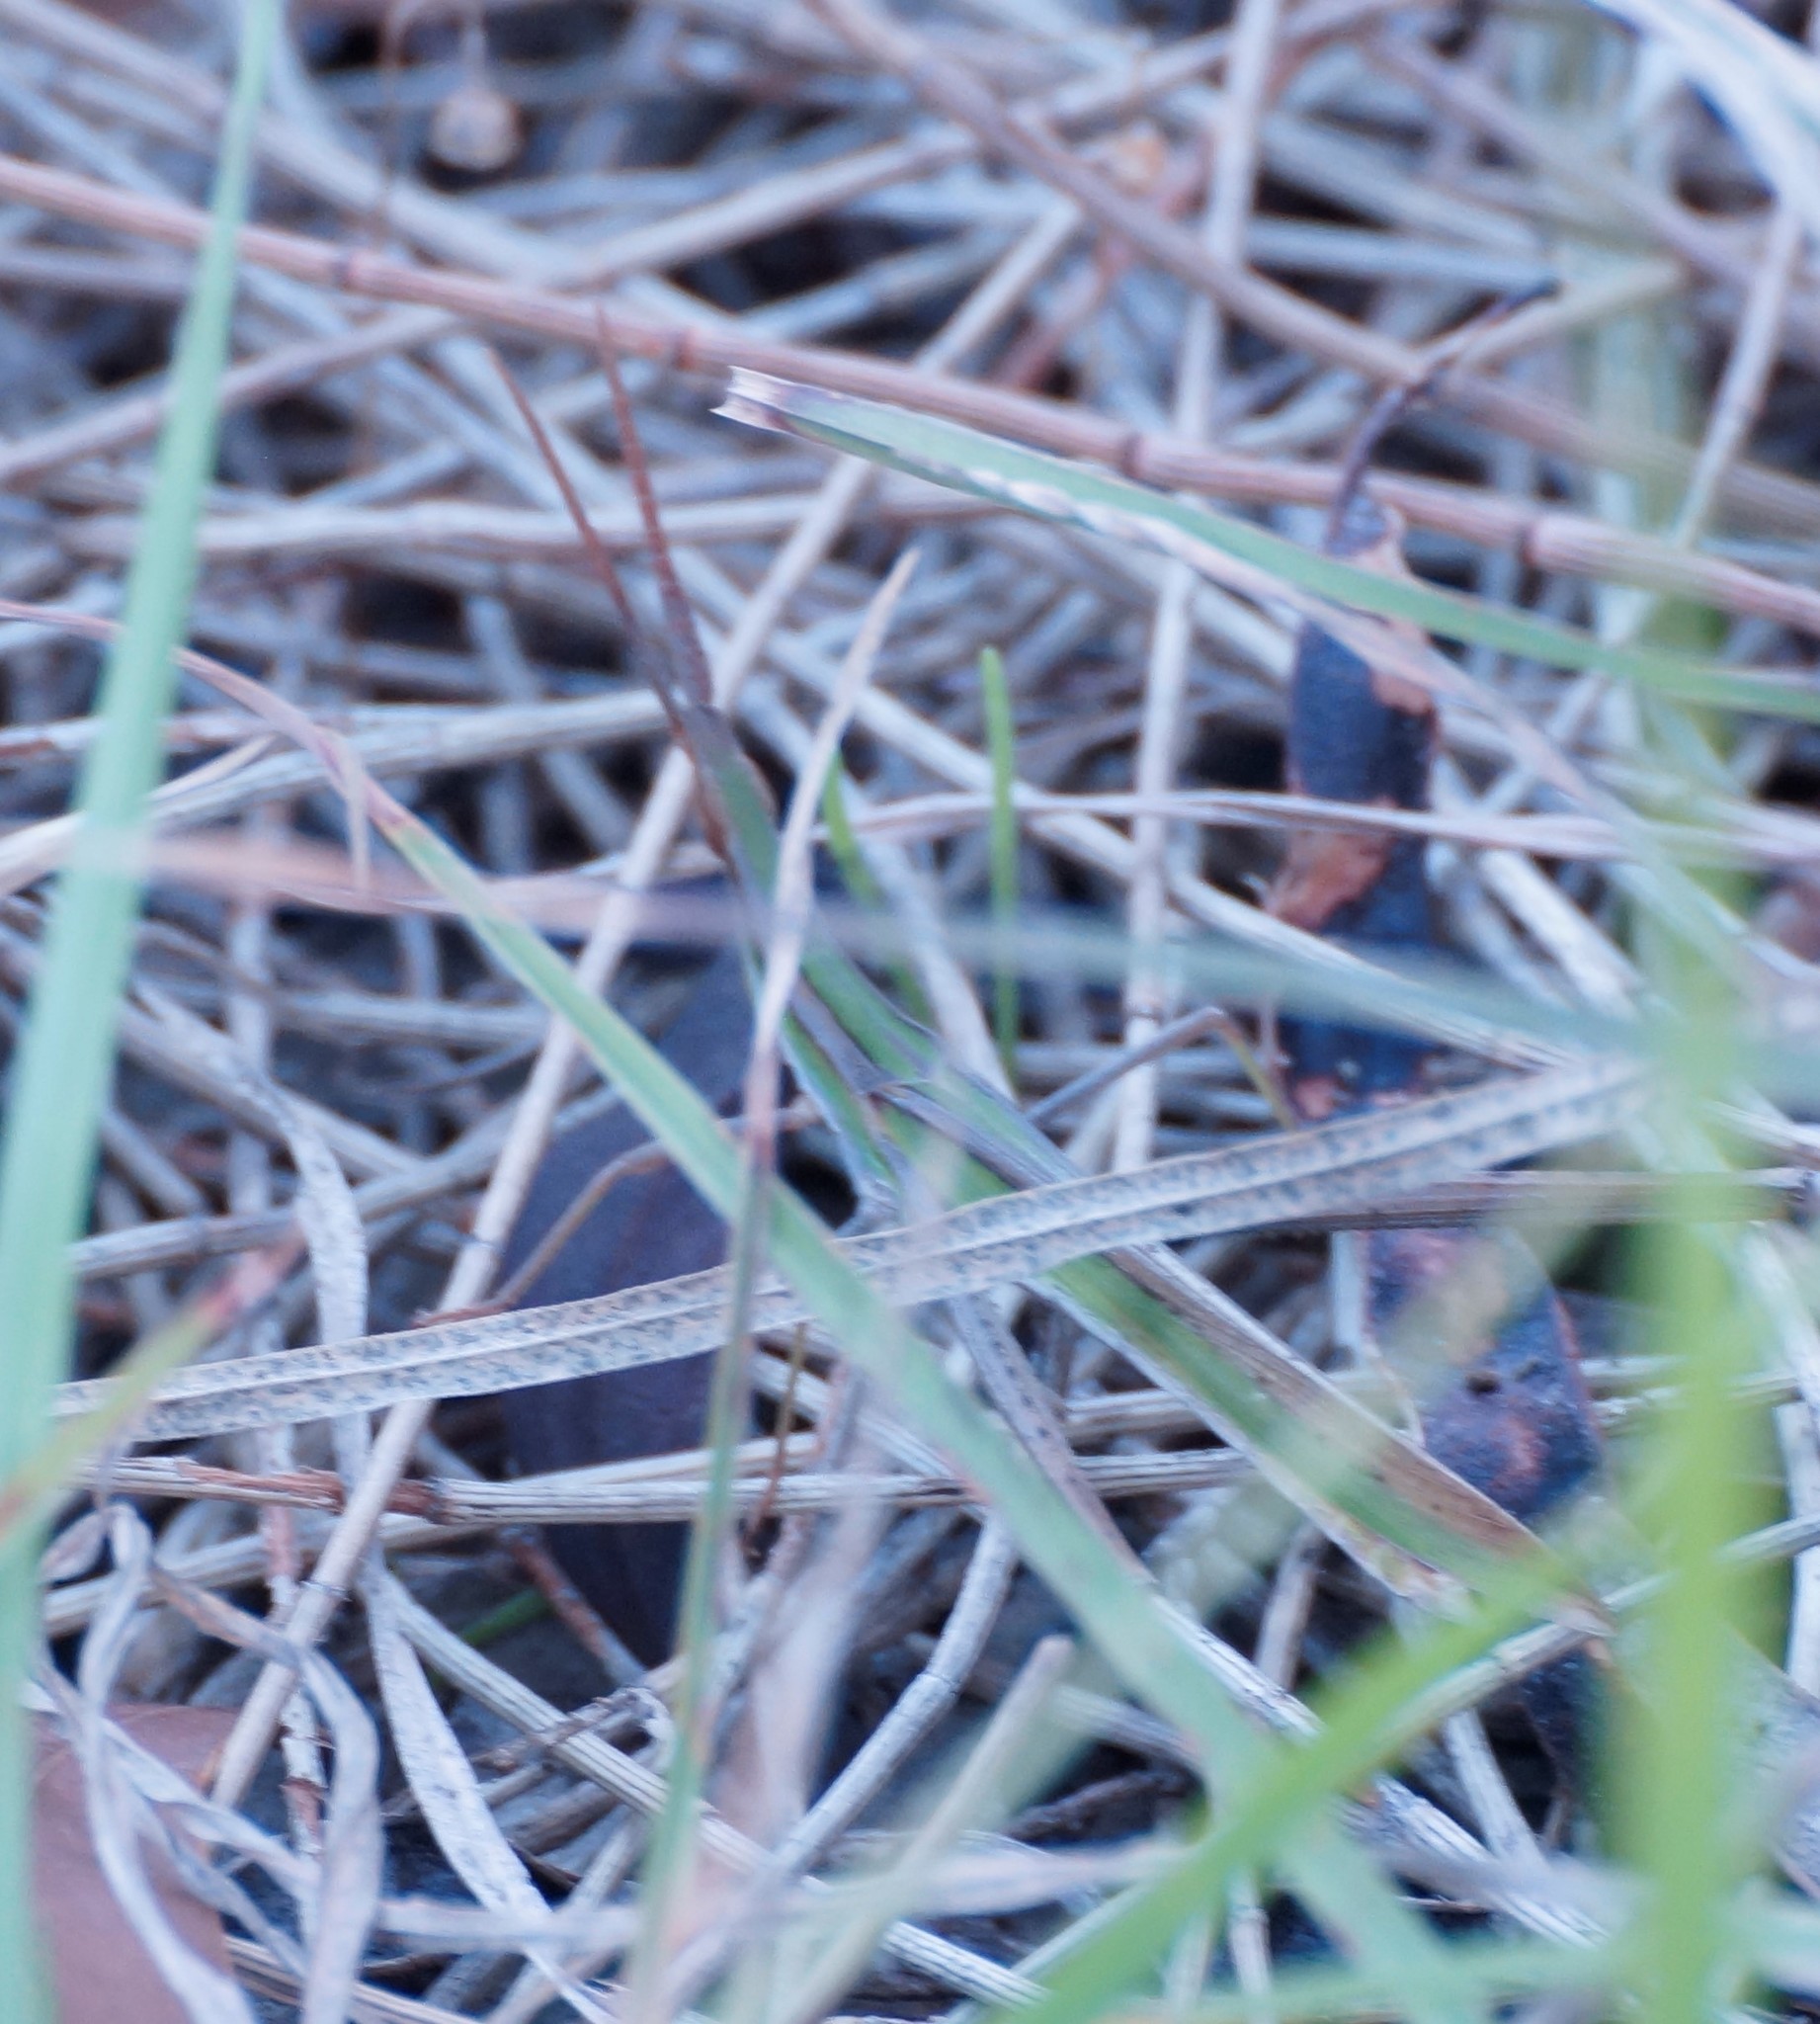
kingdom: Animalia
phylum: Arthropoda
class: Insecta
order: Orthoptera
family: Acrididae
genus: Acrida
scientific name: Acrida conica
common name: Giant green slantface
